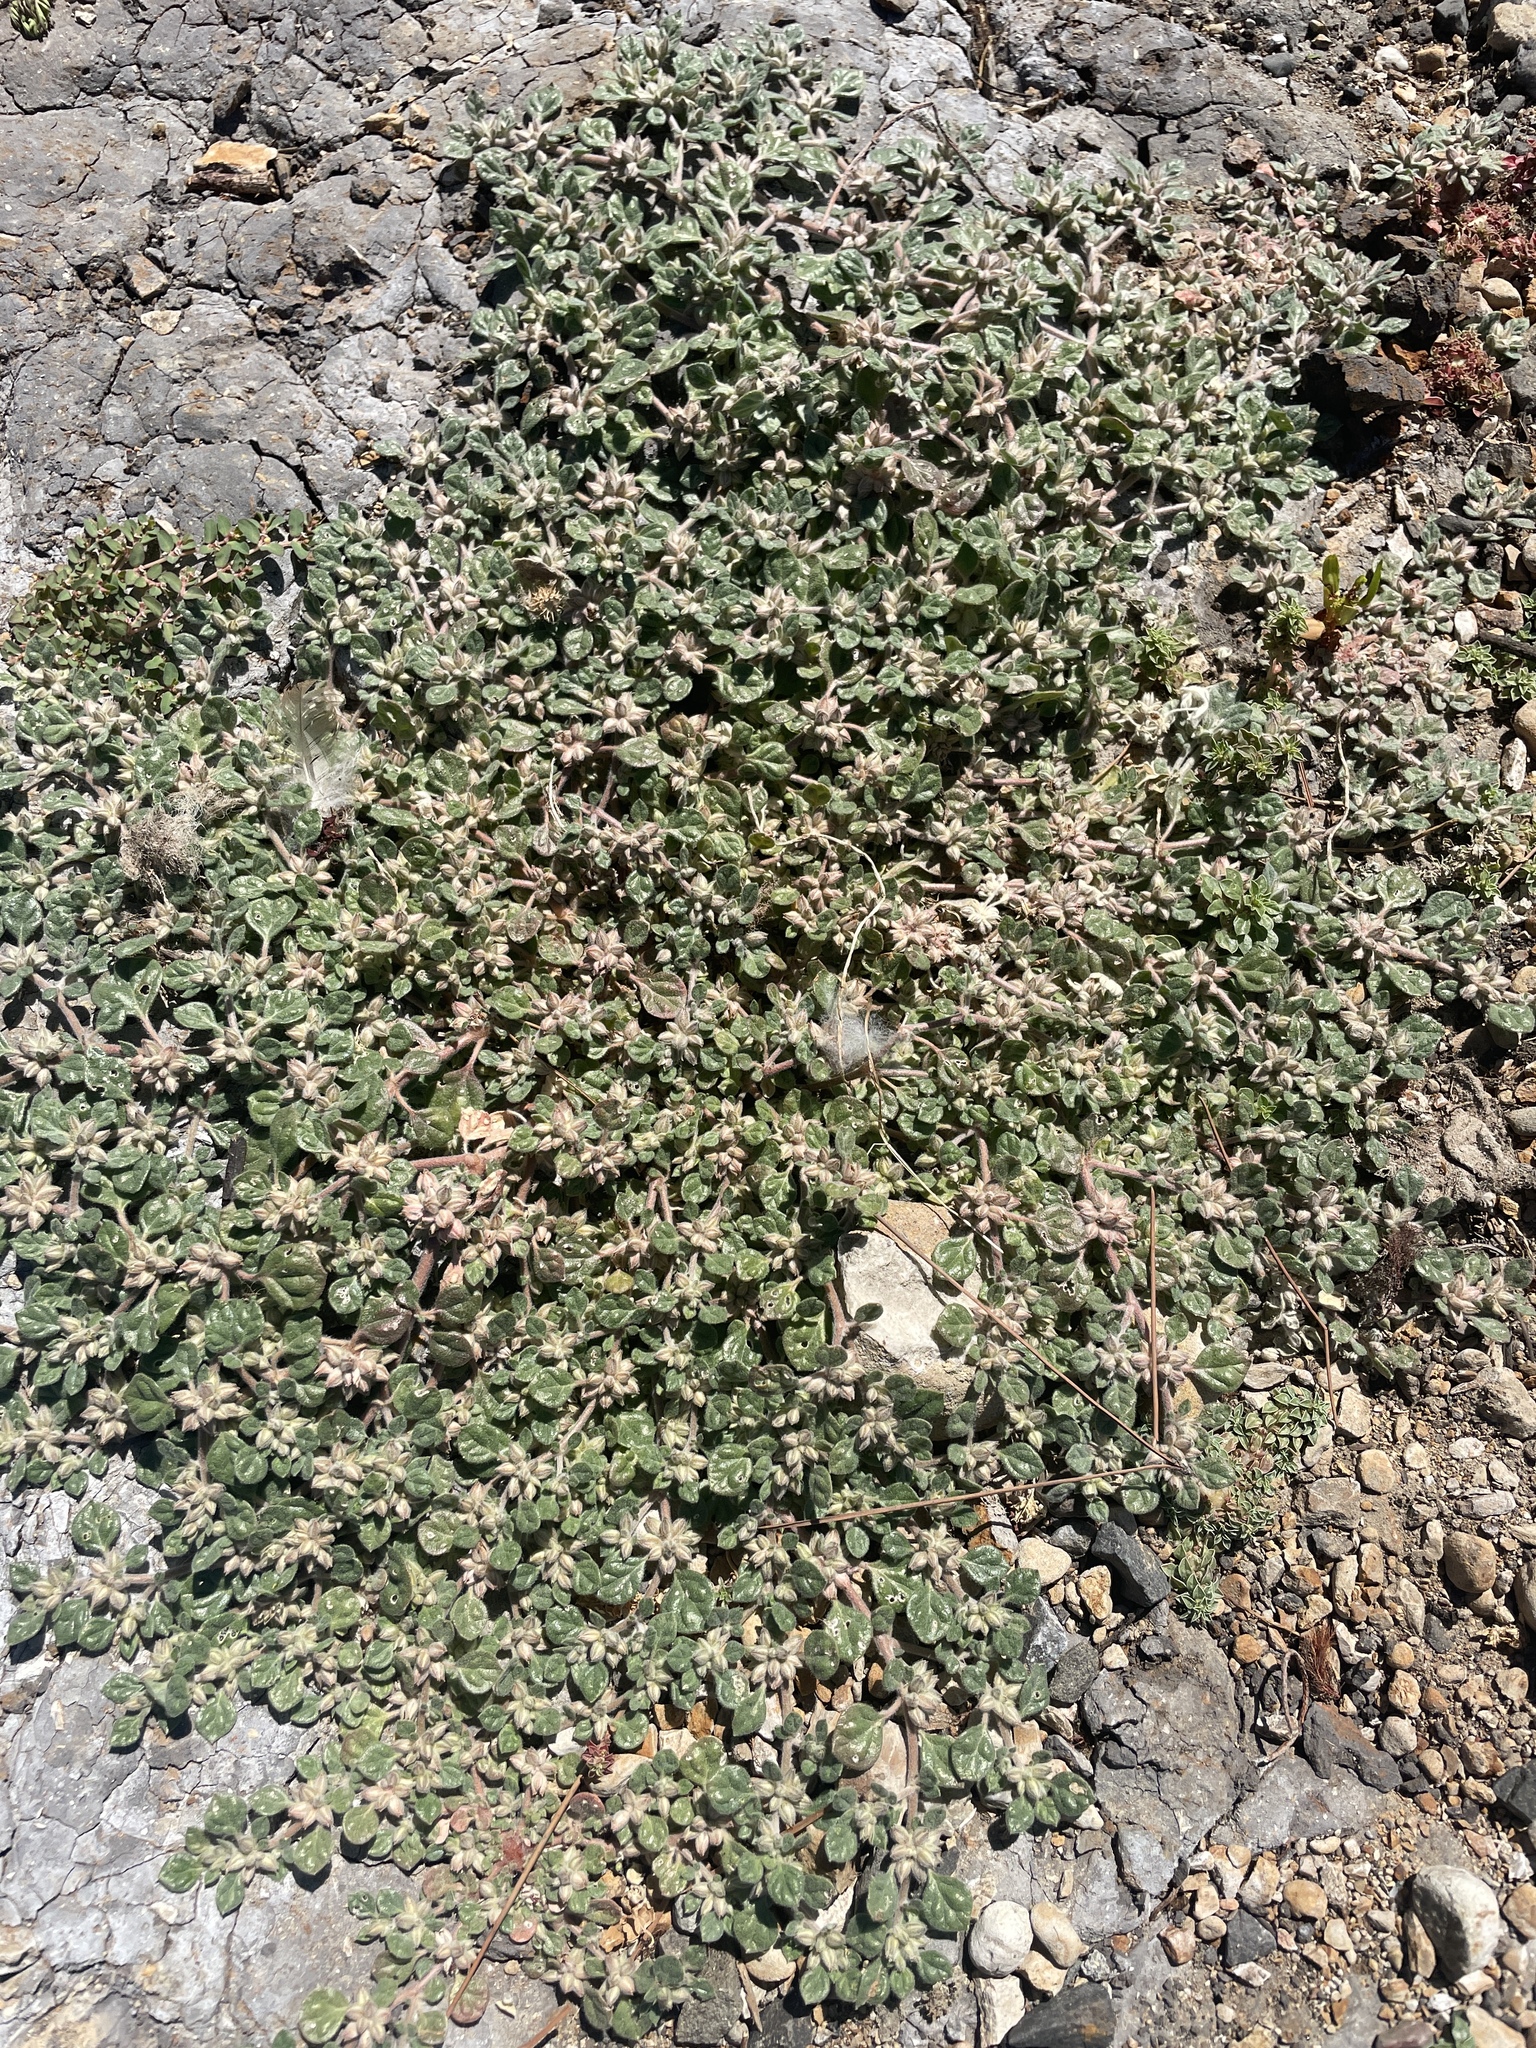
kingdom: Plantae
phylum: Tracheophyta
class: Magnoliopsida
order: Caryophyllales
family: Molluginaceae
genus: Glinus
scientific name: Glinus lotoides
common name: Lotus sweetjuice
